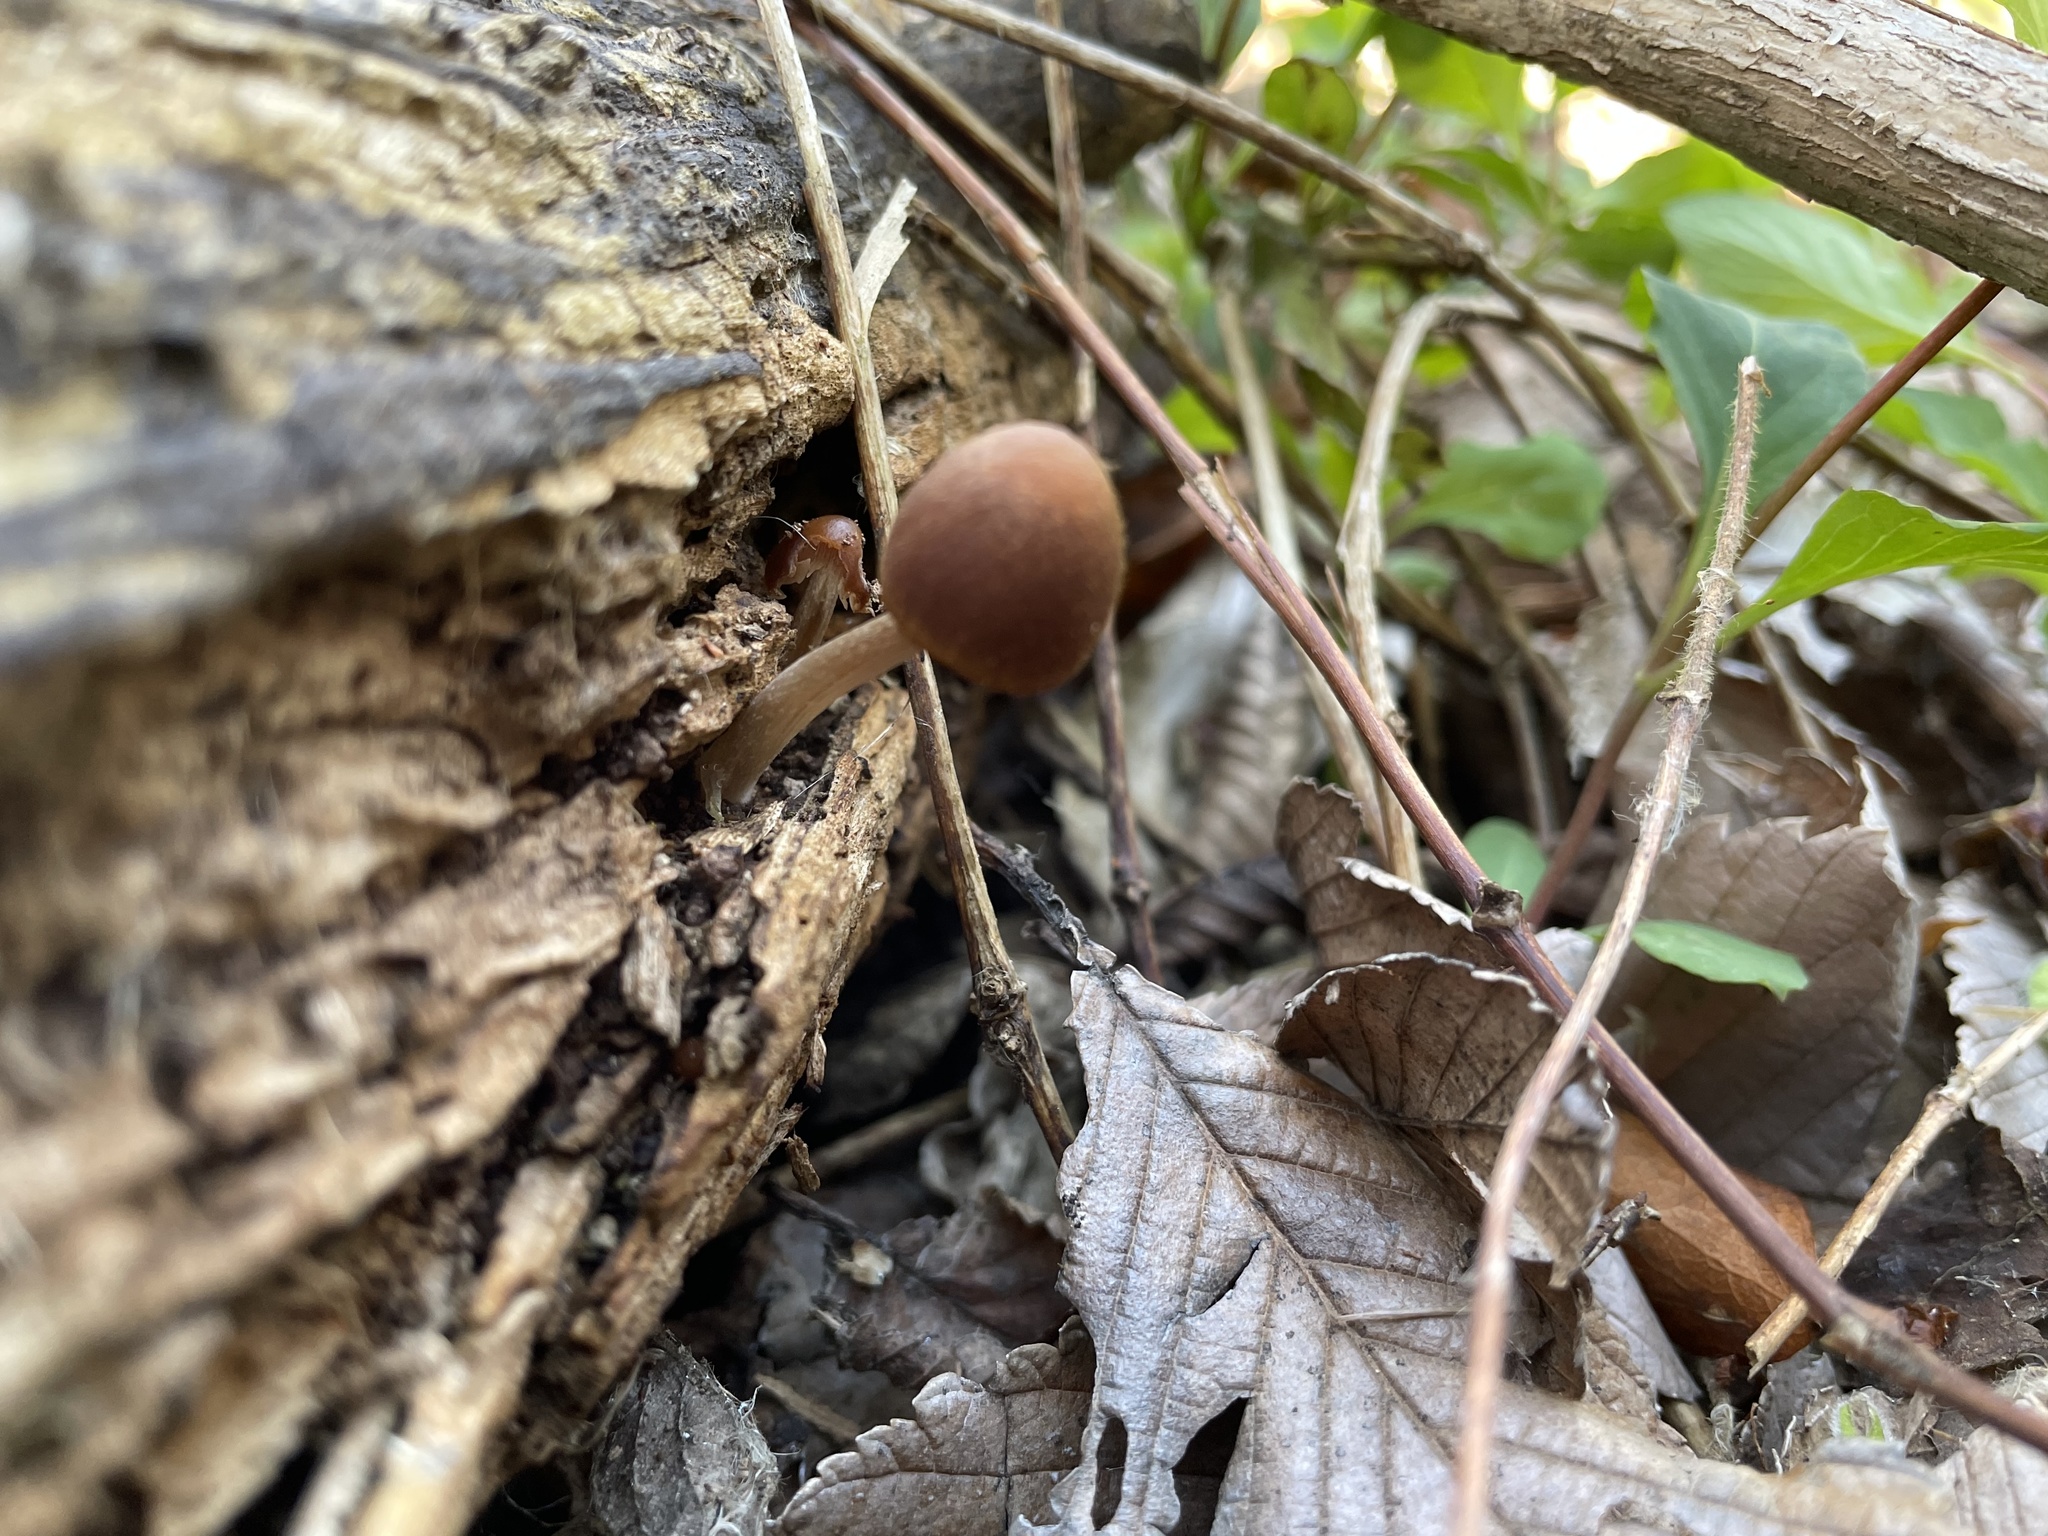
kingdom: Fungi
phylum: Basidiomycota
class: Agaricomycetes
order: Agaricales
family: Psathyrellaceae
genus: Psathyrella
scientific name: Psathyrella bipellis
